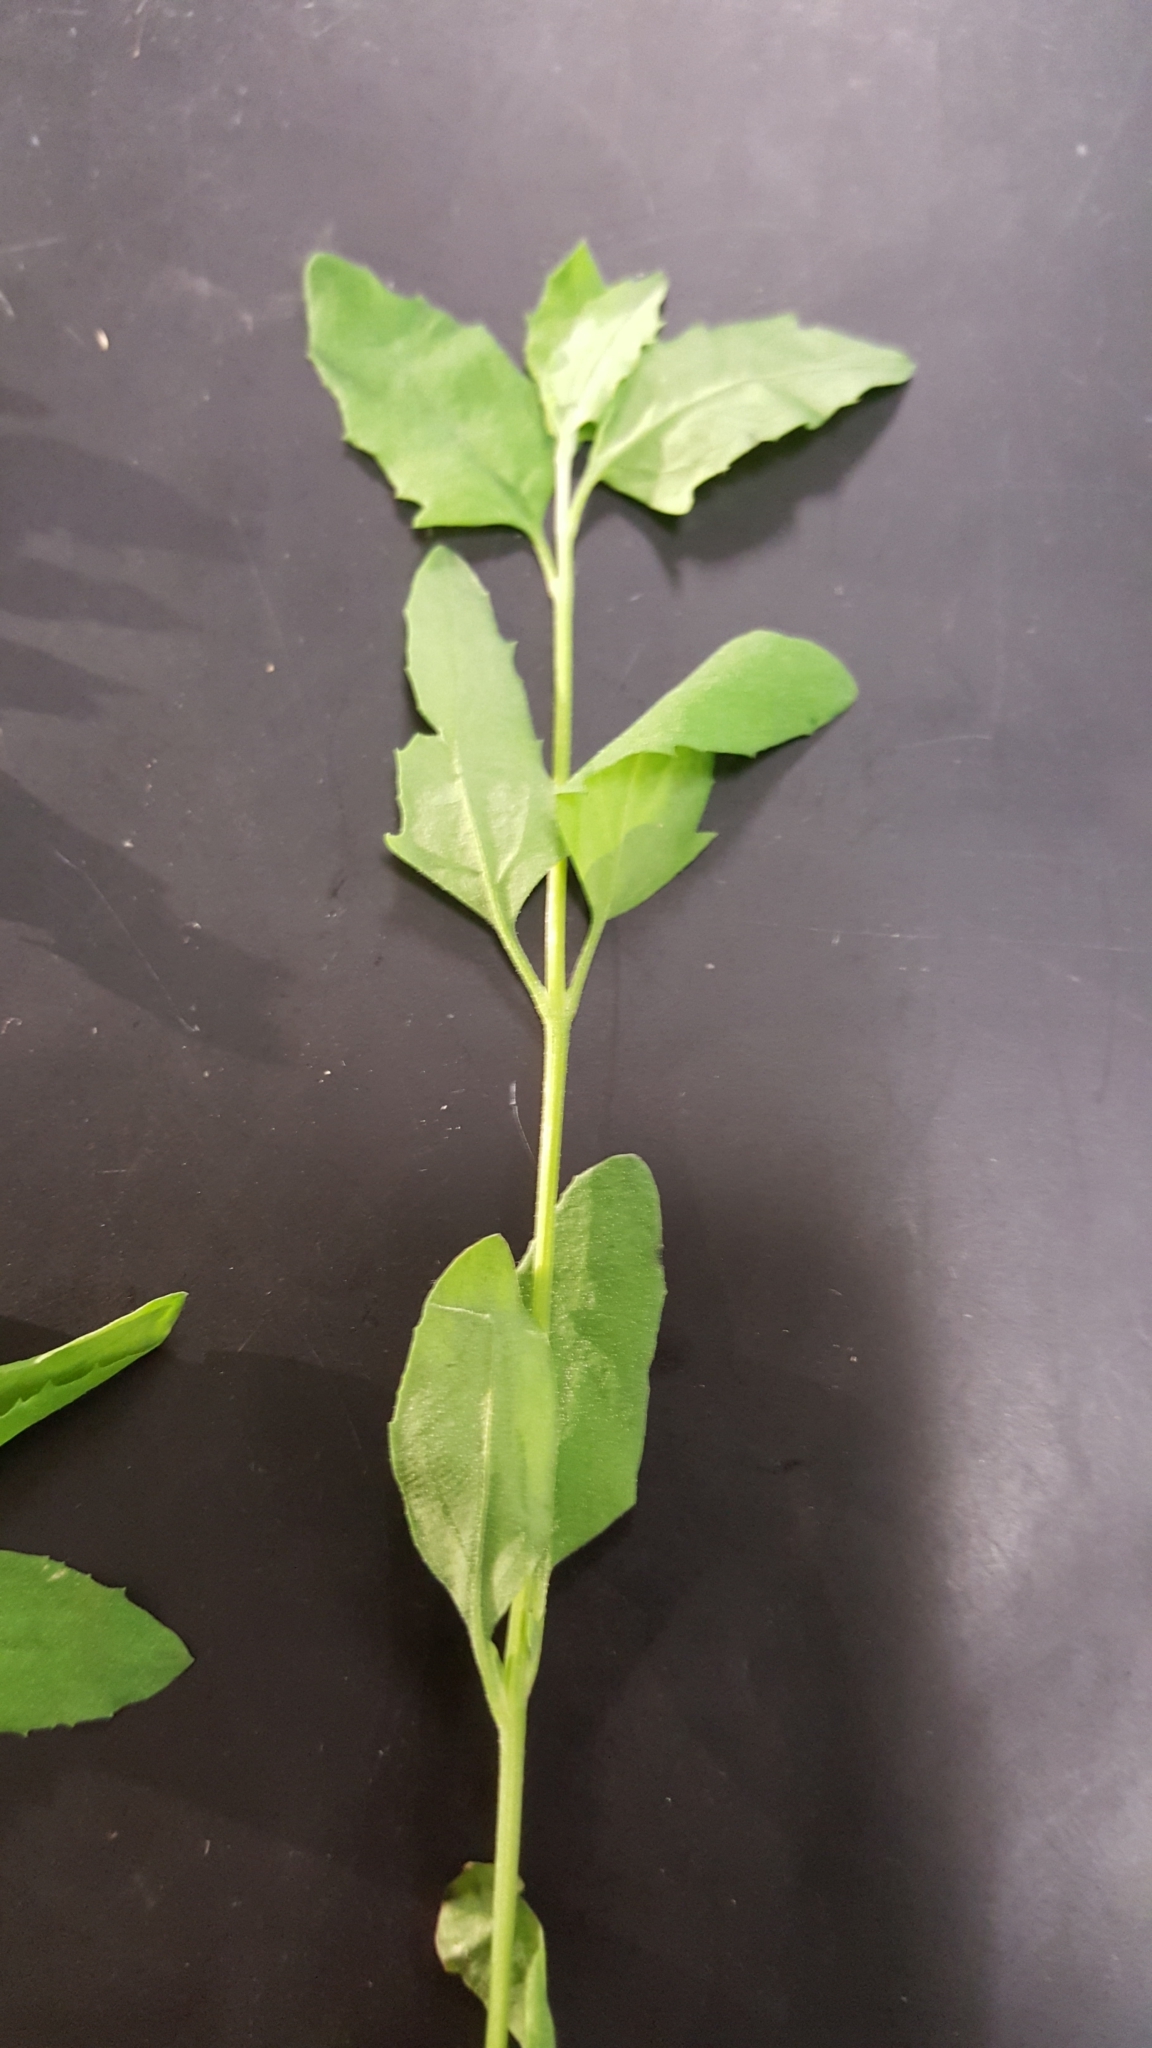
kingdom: Plantae
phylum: Tracheophyta
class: Magnoliopsida
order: Caryophyllales
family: Amaranthaceae
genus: Chenopodium
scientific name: Chenopodium album
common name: Fat-hen
